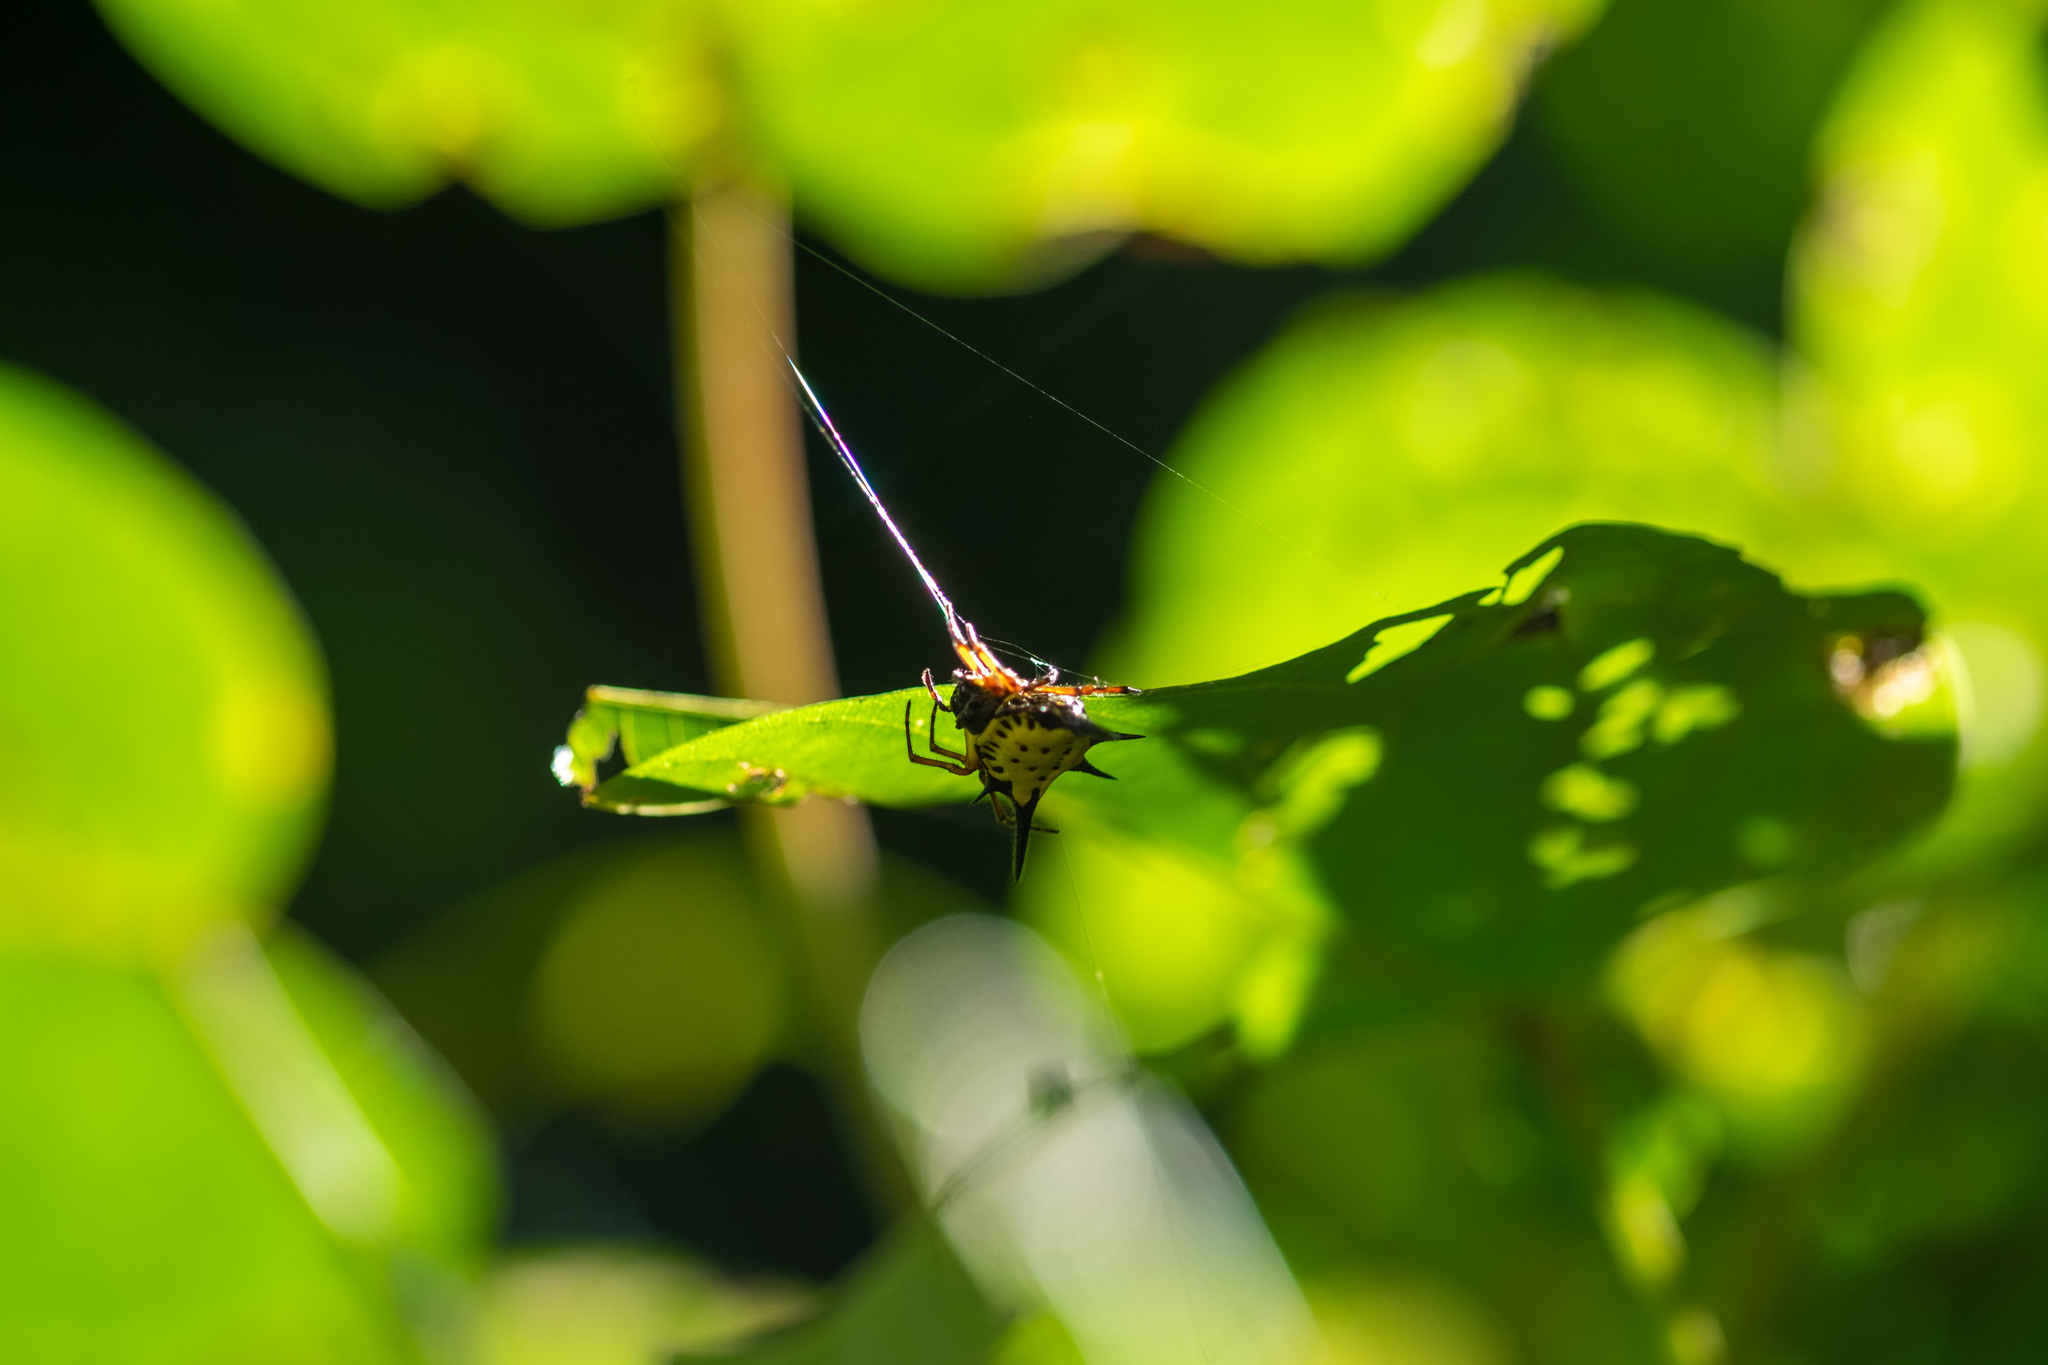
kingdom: Animalia
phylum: Arthropoda
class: Arachnida
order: Araneae
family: Araneidae
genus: Macracantha
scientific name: Macracantha hasselti
